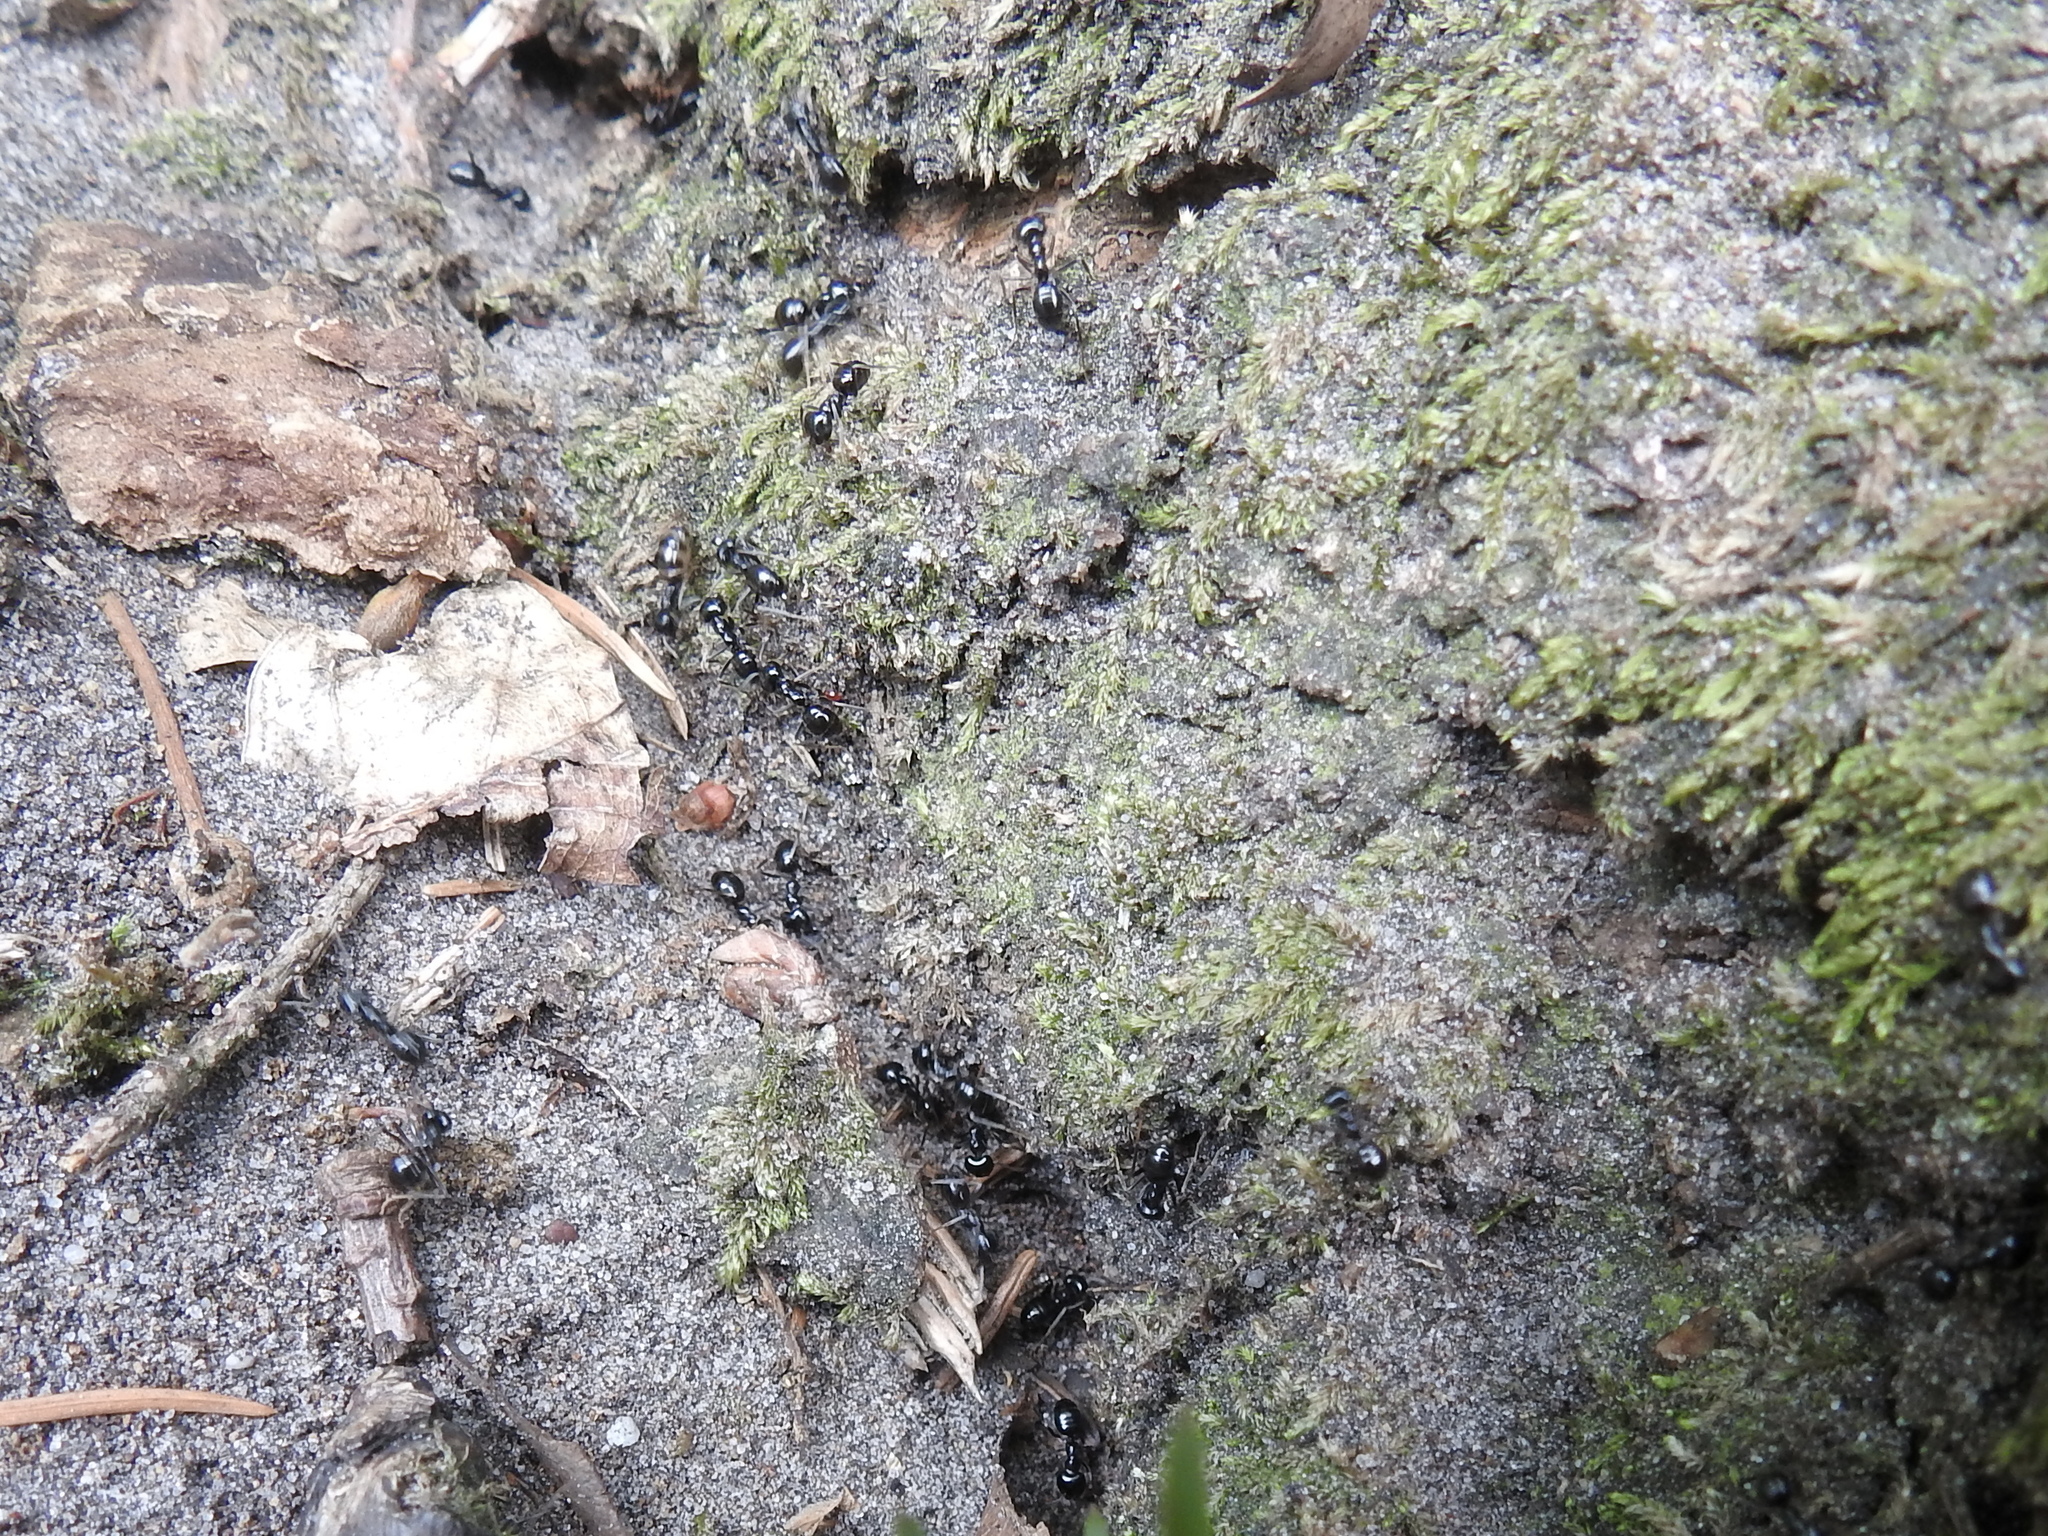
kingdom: Animalia
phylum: Arthropoda
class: Insecta
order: Hymenoptera
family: Formicidae
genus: Lasius
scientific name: Lasius fuliginosus
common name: Jet ant
